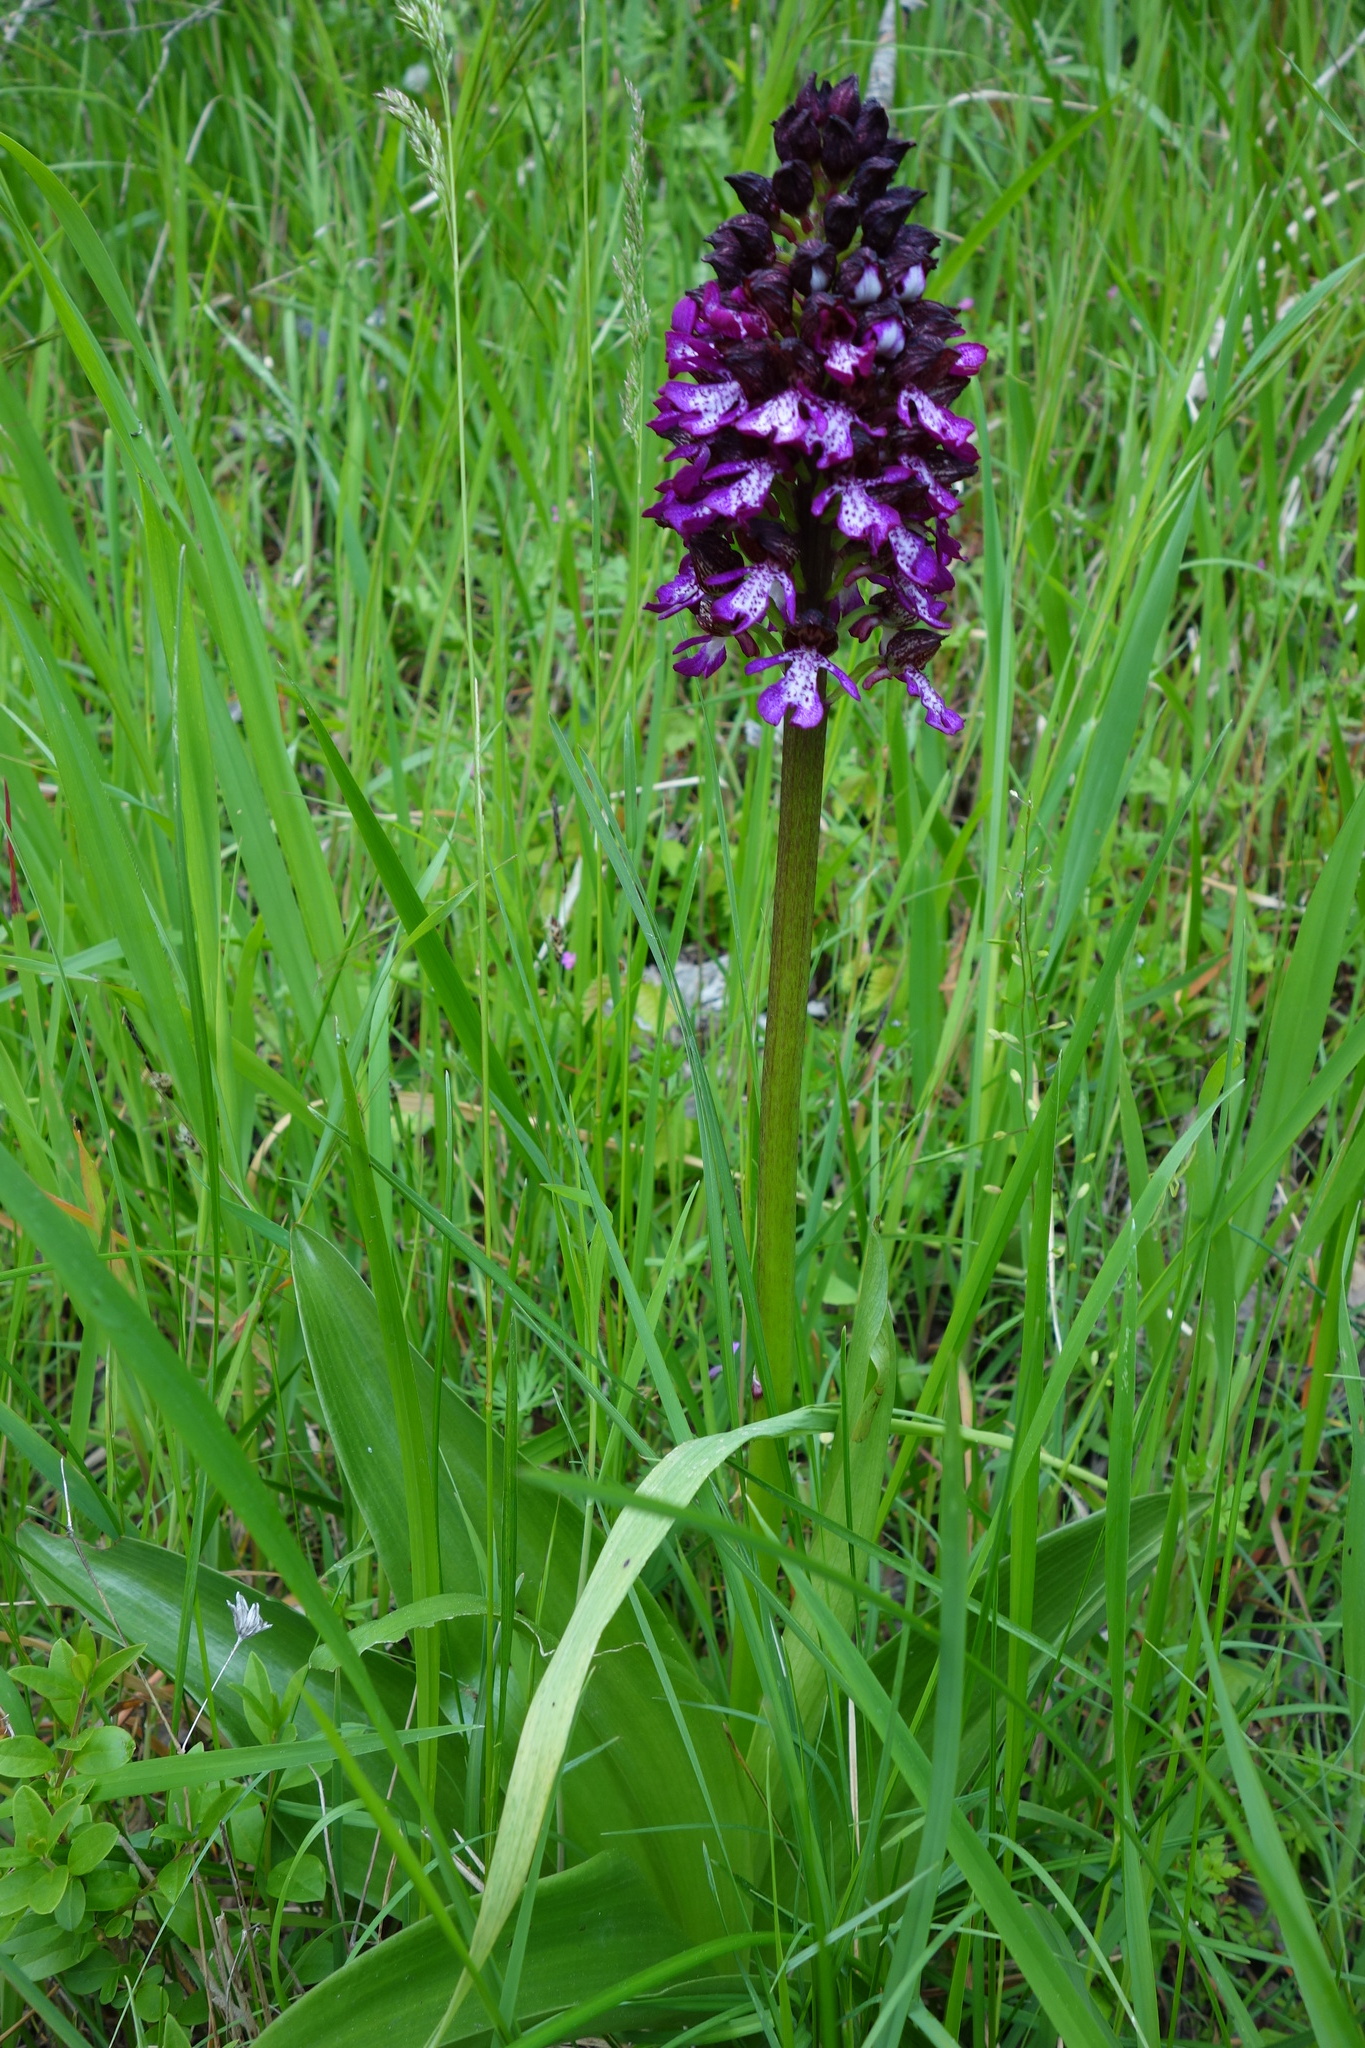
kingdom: Plantae
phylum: Tracheophyta
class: Liliopsida
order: Asparagales
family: Orchidaceae
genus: Orchis
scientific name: Orchis purpurea
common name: Lady orchid
